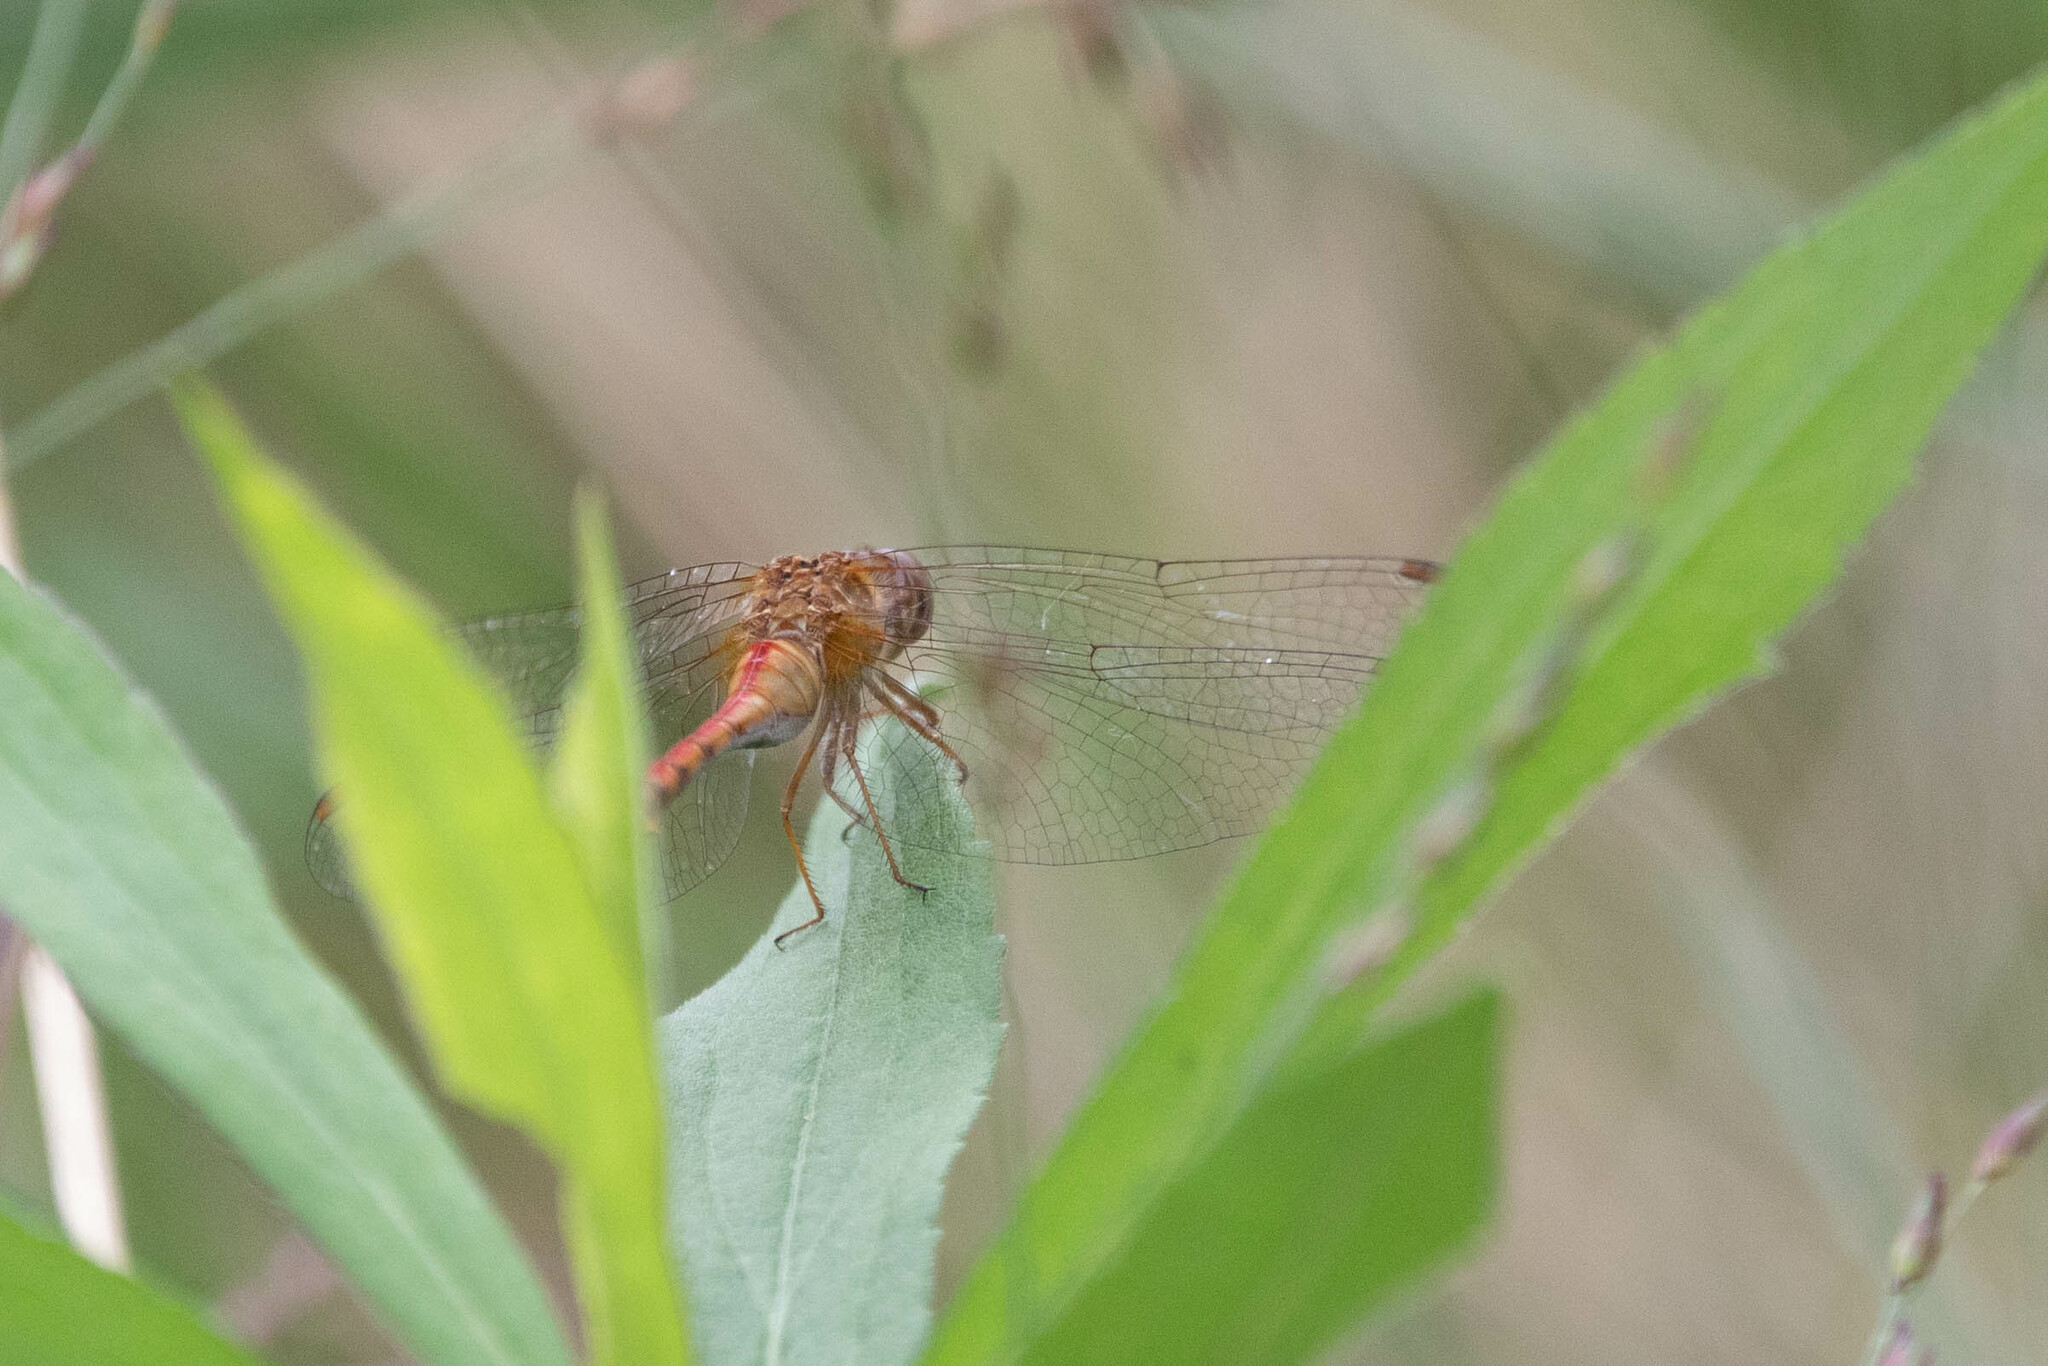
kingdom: Animalia
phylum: Arthropoda
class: Insecta
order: Odonata
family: Libellulidae
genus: Sympetrum
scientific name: Sympetrum vicinum
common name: Autumn meadowhawk
